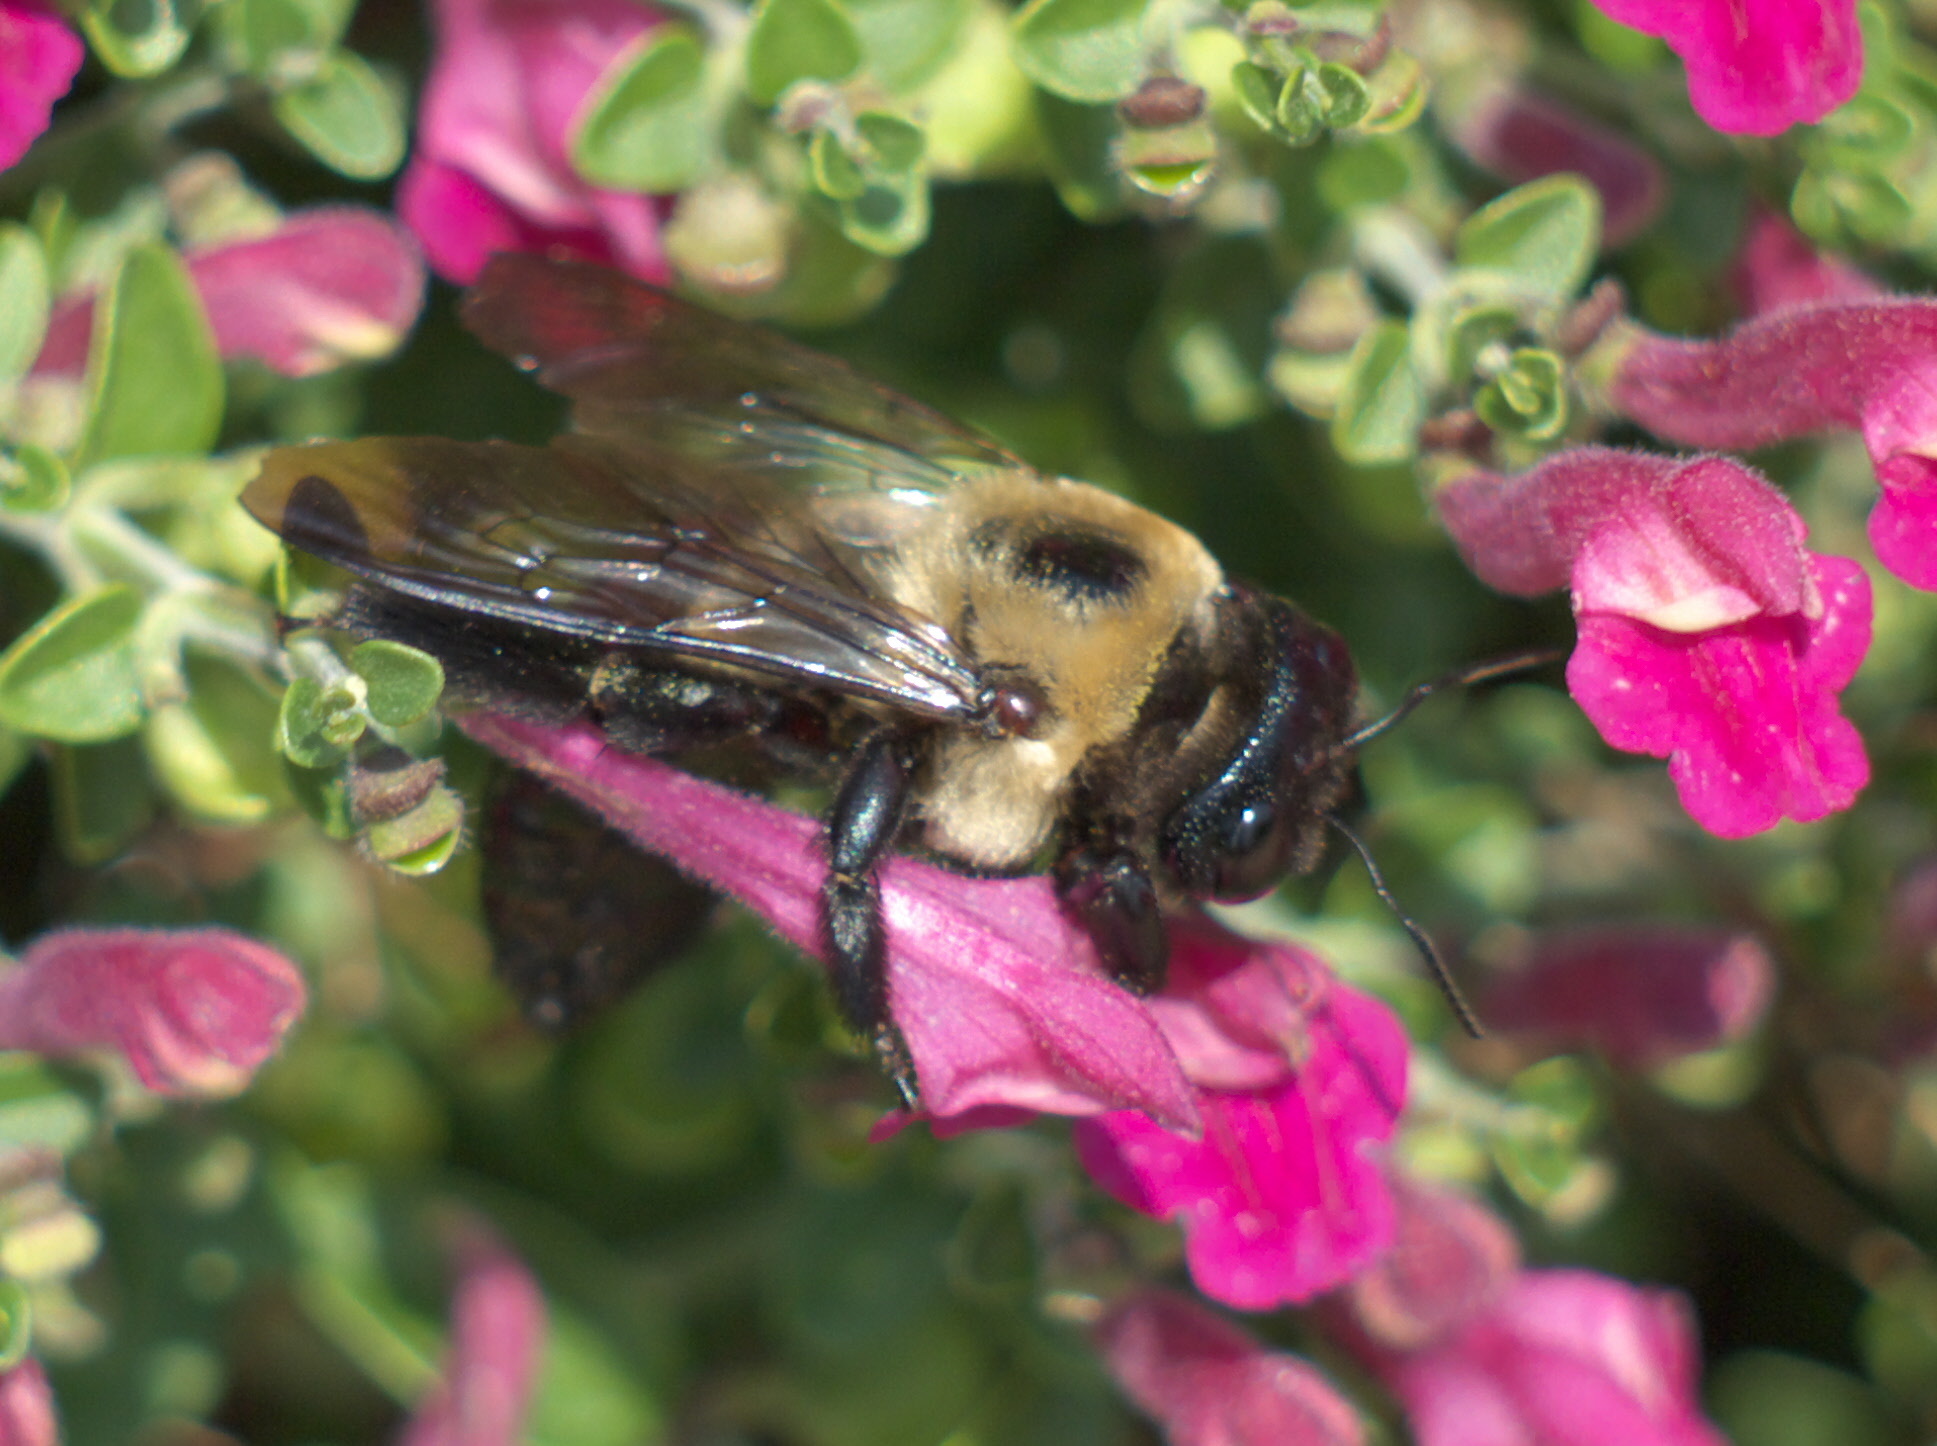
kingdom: Animalia
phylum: Arthropoda
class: Insecta
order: Hymenoptera
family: Apidae
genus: Xylocopa
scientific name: Xylocopa virginica
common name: Carpenter bee
